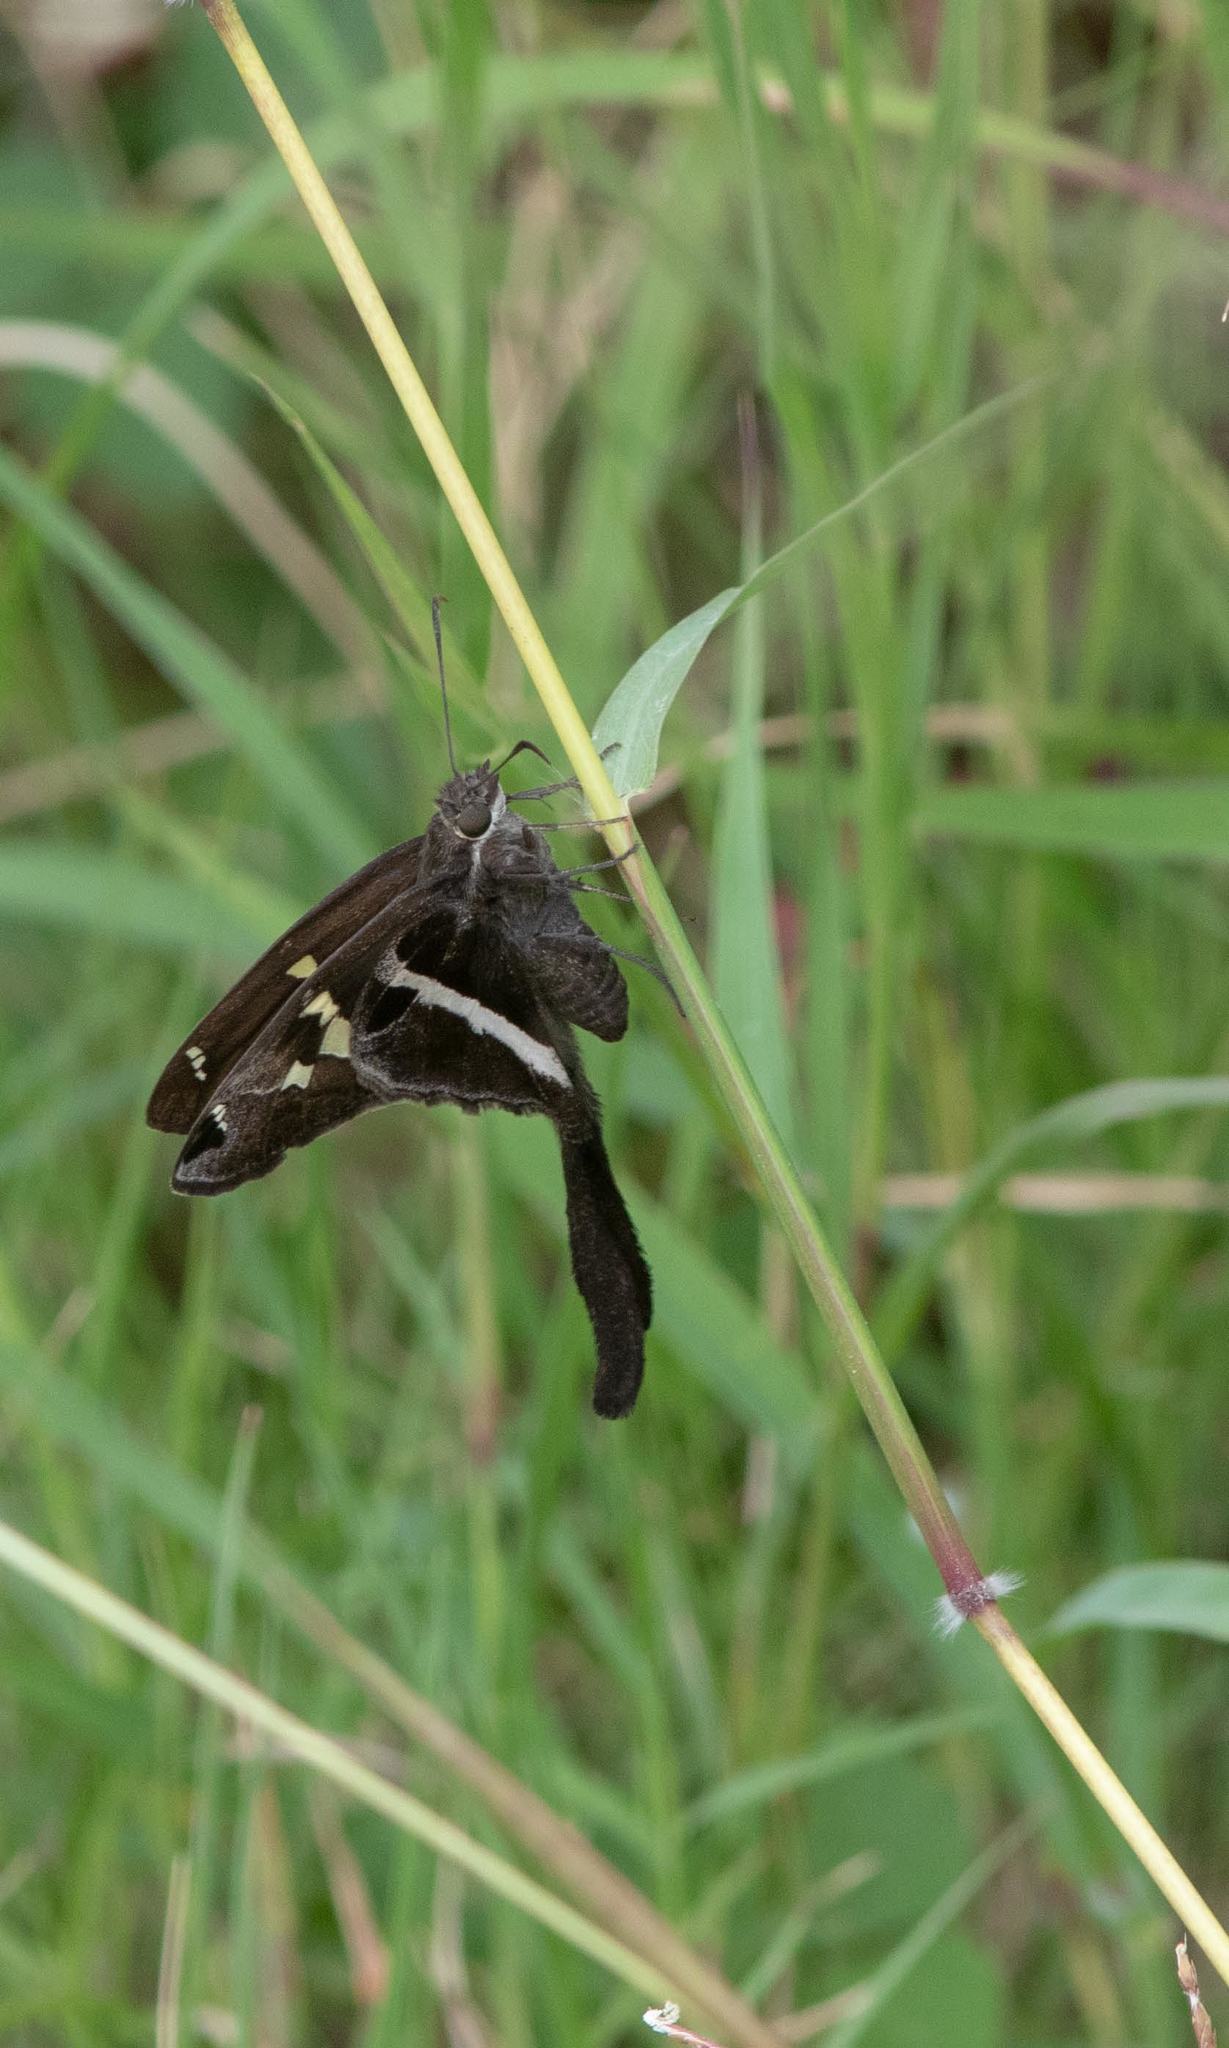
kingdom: Animalia
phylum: Arthropoda
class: Insecta
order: Lepidoptera
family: Hesperiidae
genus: Chioides
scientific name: Chioides catillus
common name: Silverbanded skipper
